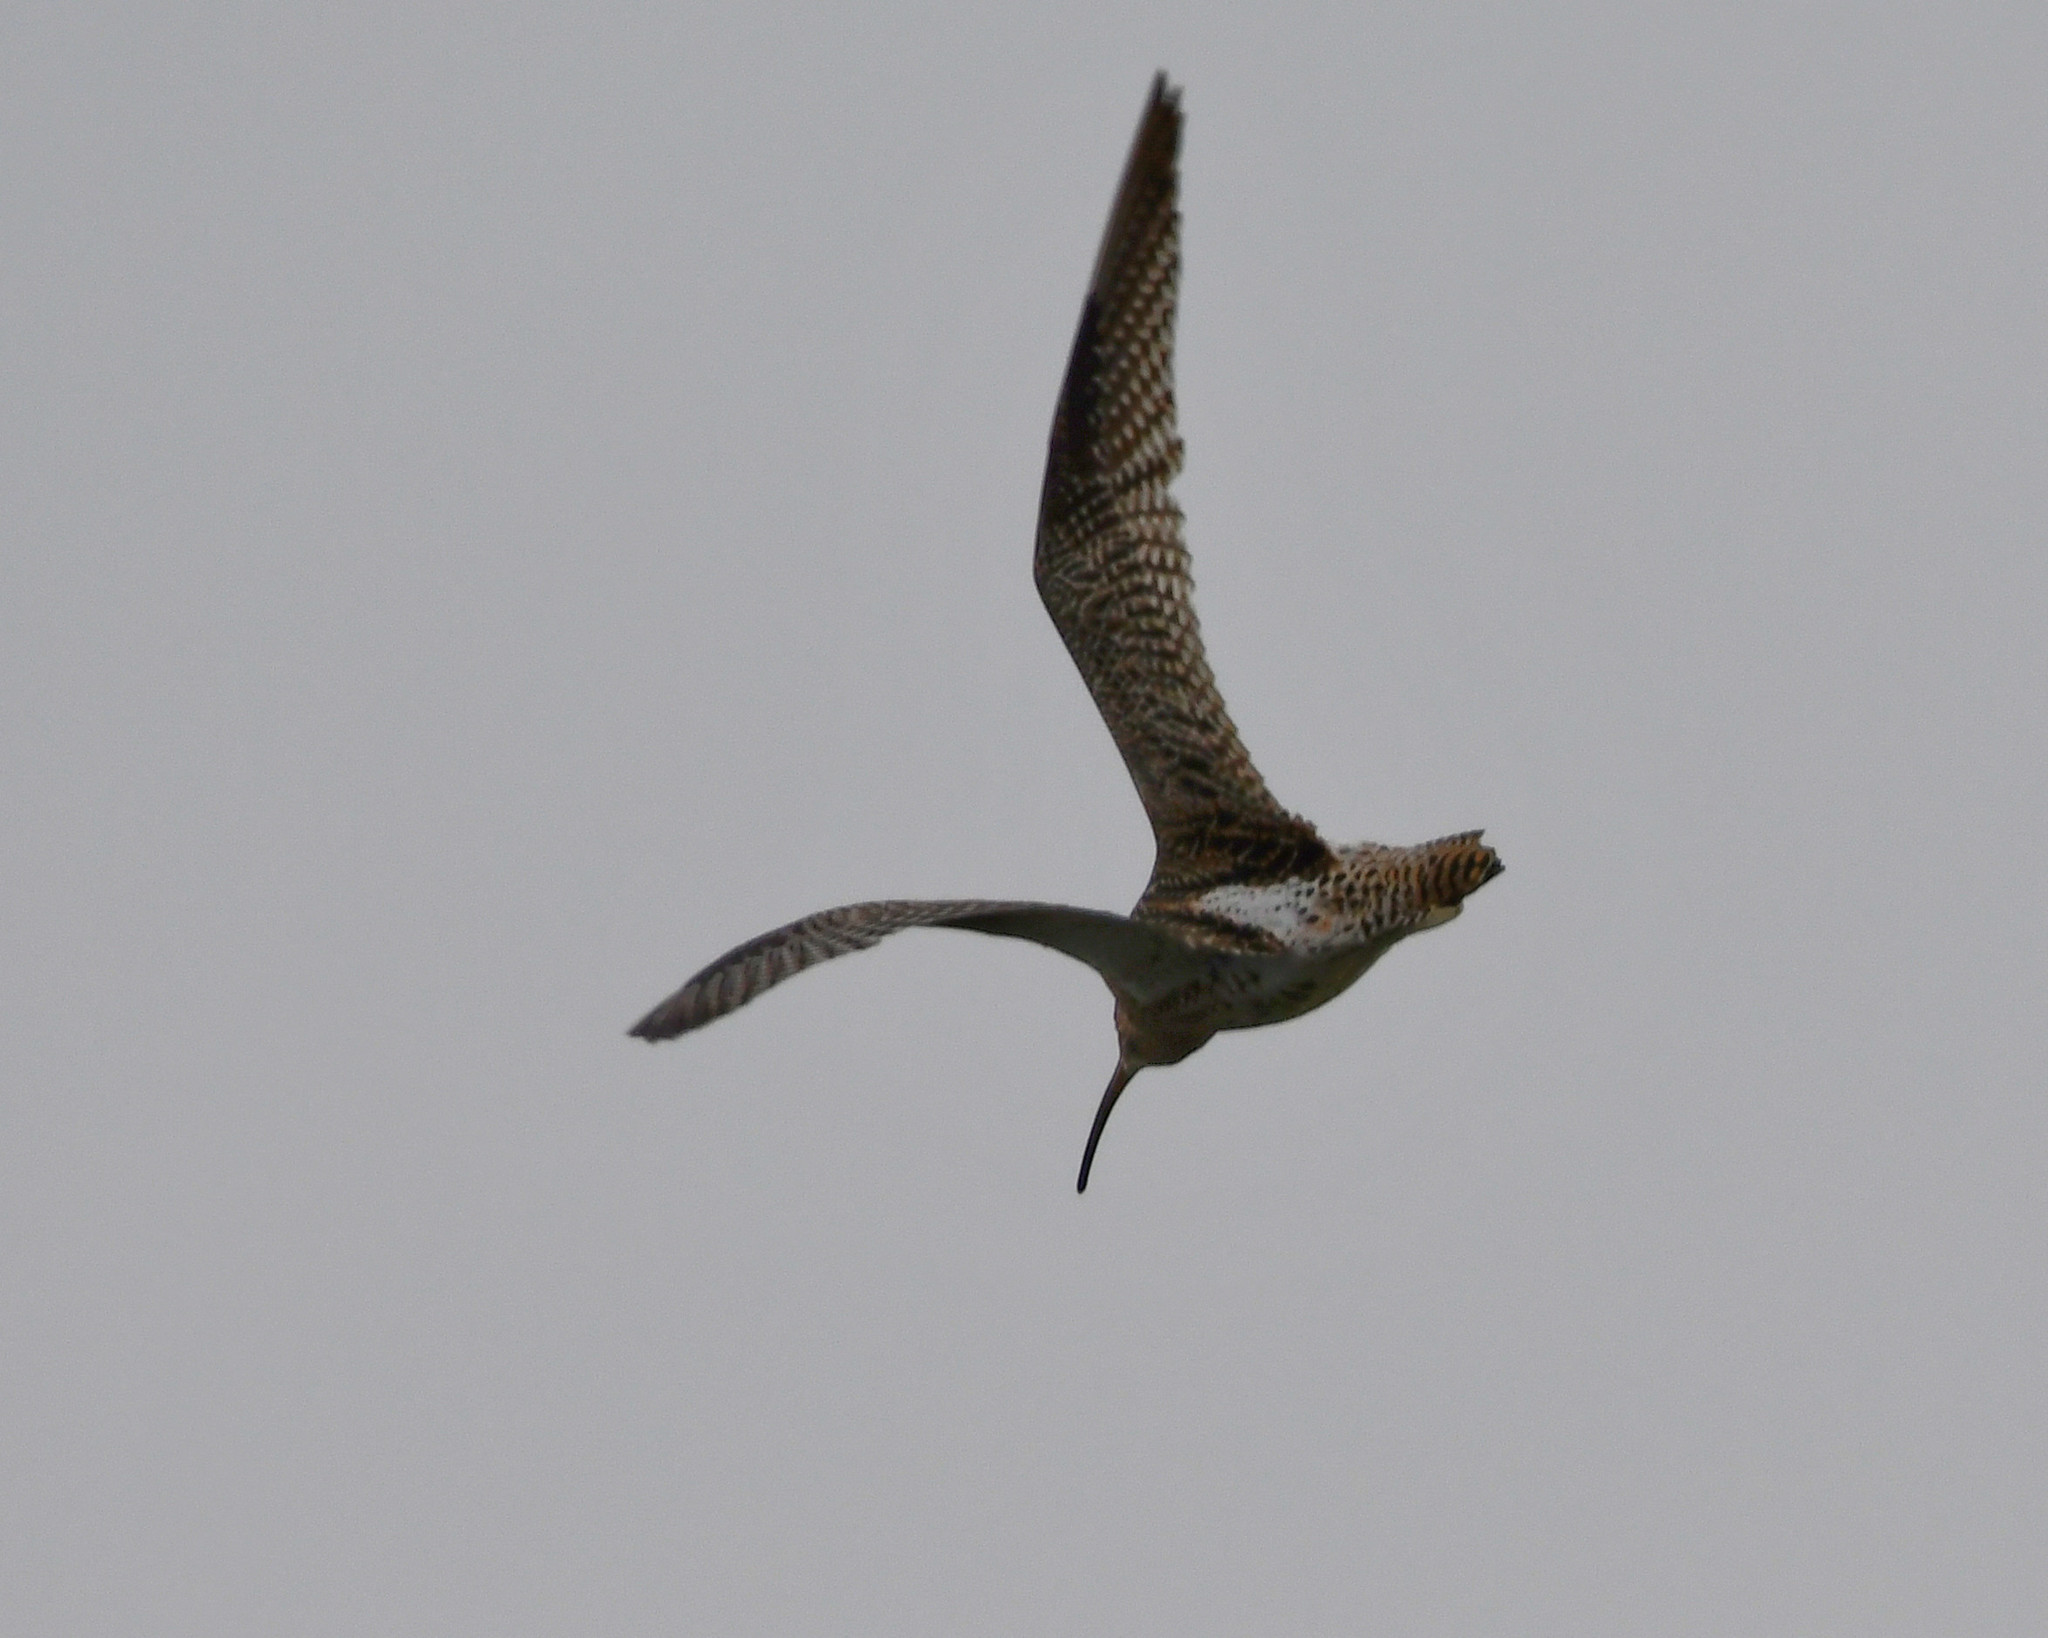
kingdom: Animalia
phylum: Chordata
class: Aves
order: Charadriiformes
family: Scolopacidae
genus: Numenius
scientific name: Numenius arquata
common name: Eurasian curlew
